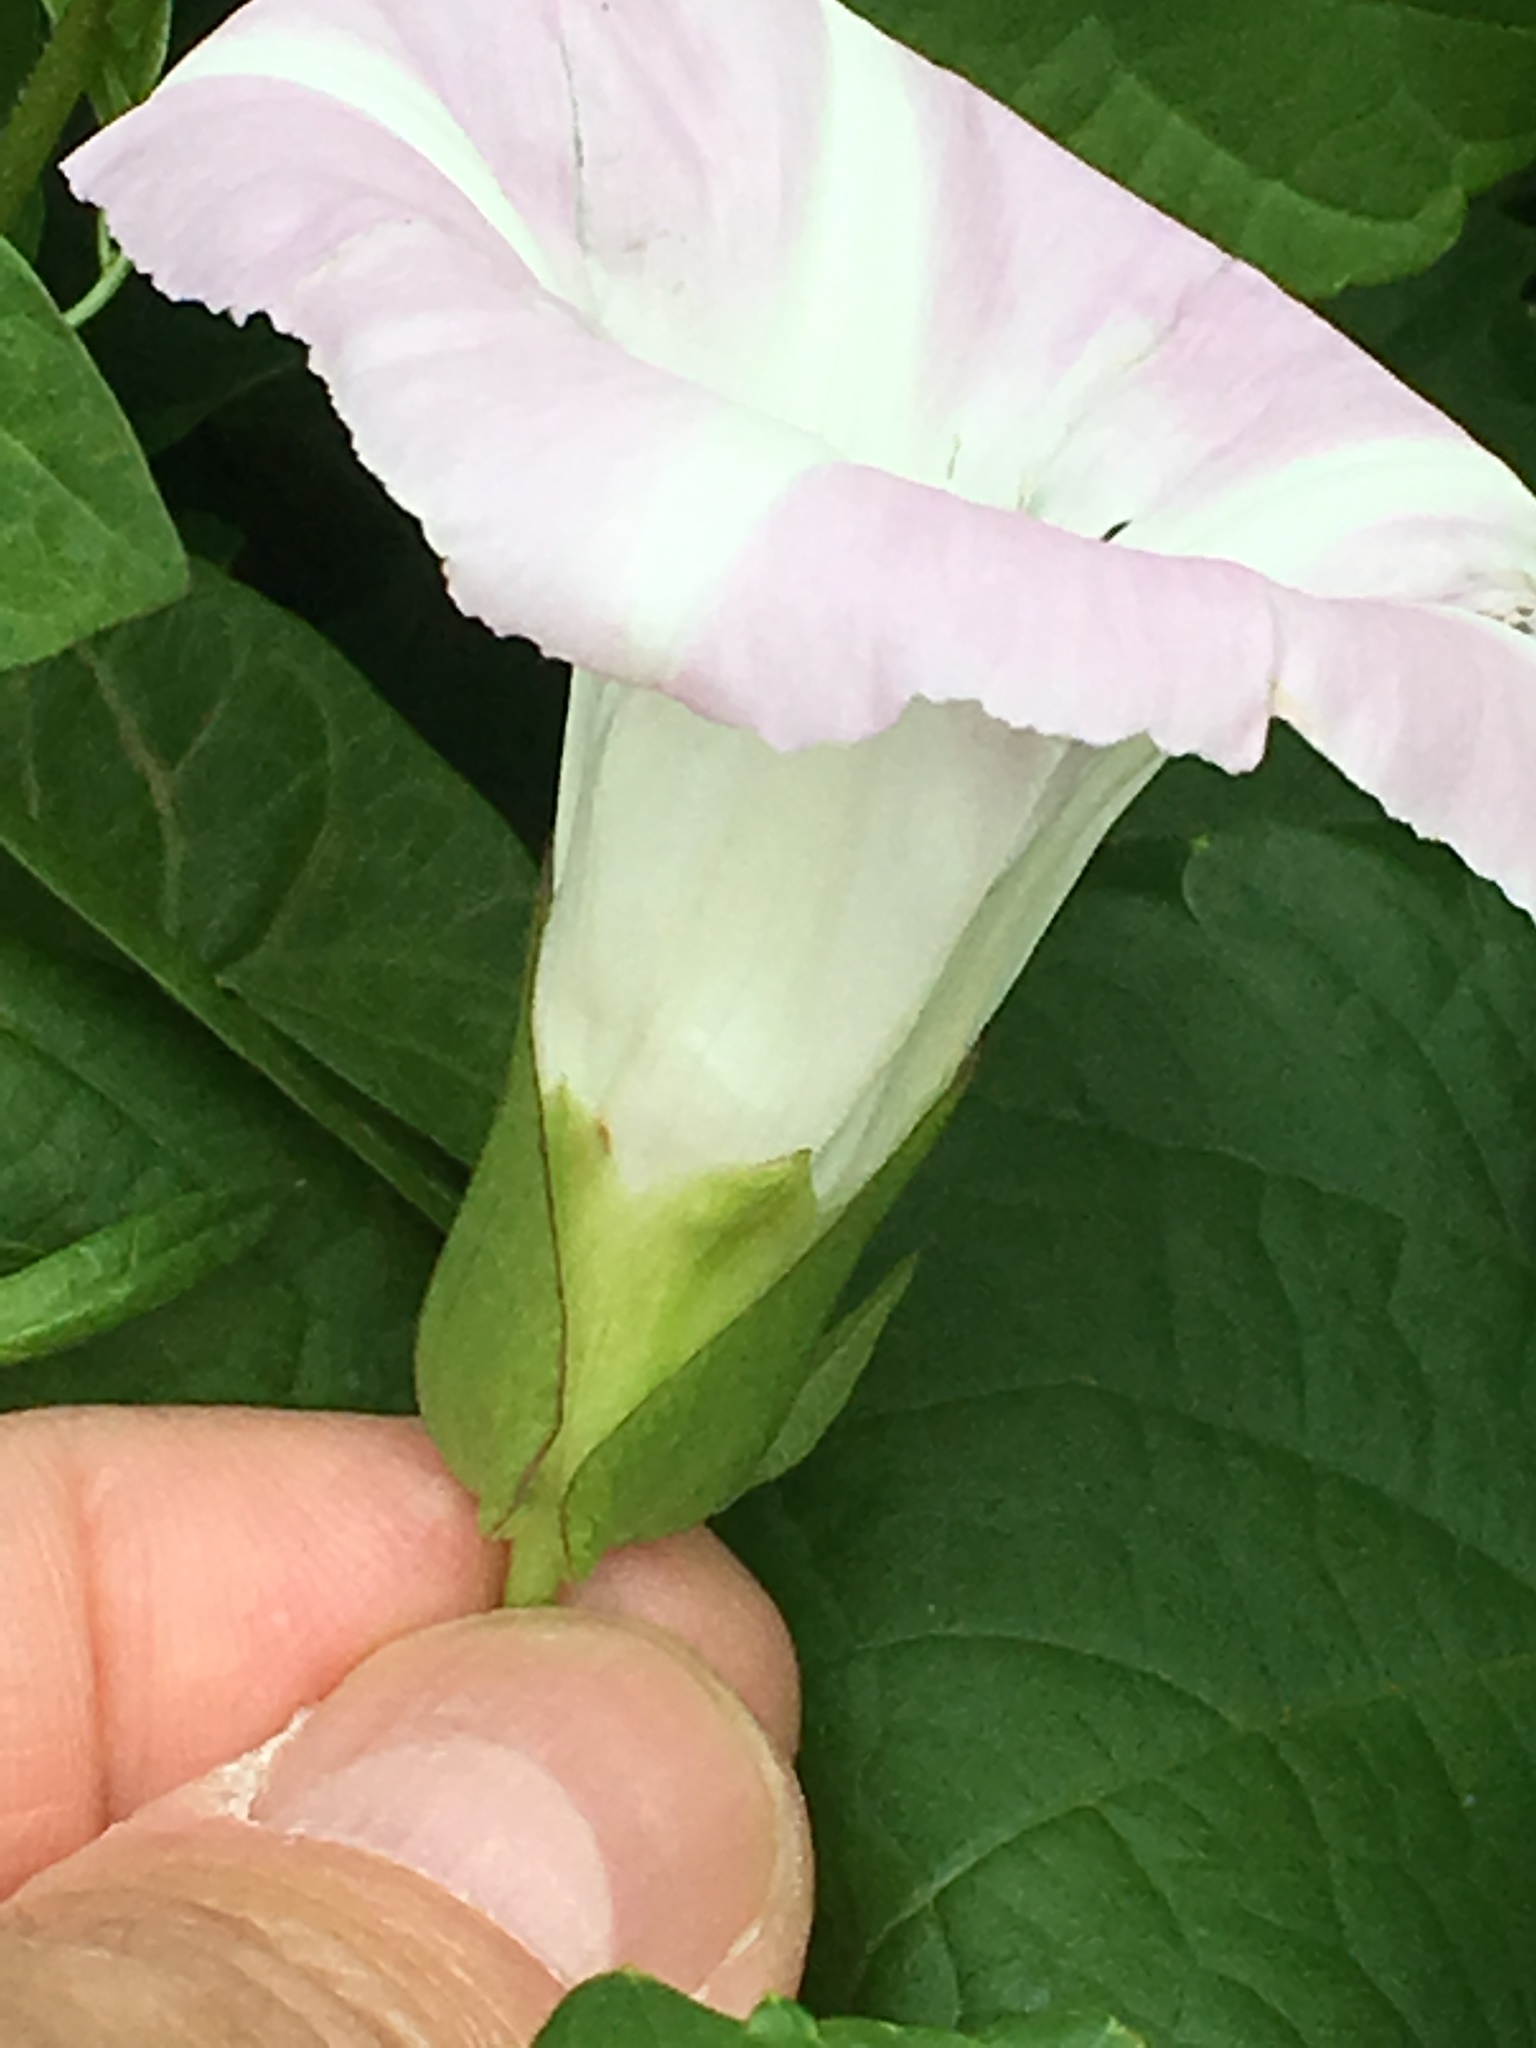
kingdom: Plantae
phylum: Tracheophyta
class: Magnoliopsida
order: Solanales
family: Convolvulaceae
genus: Calystegia
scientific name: Calystegia sepium
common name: Hedge bindweed
